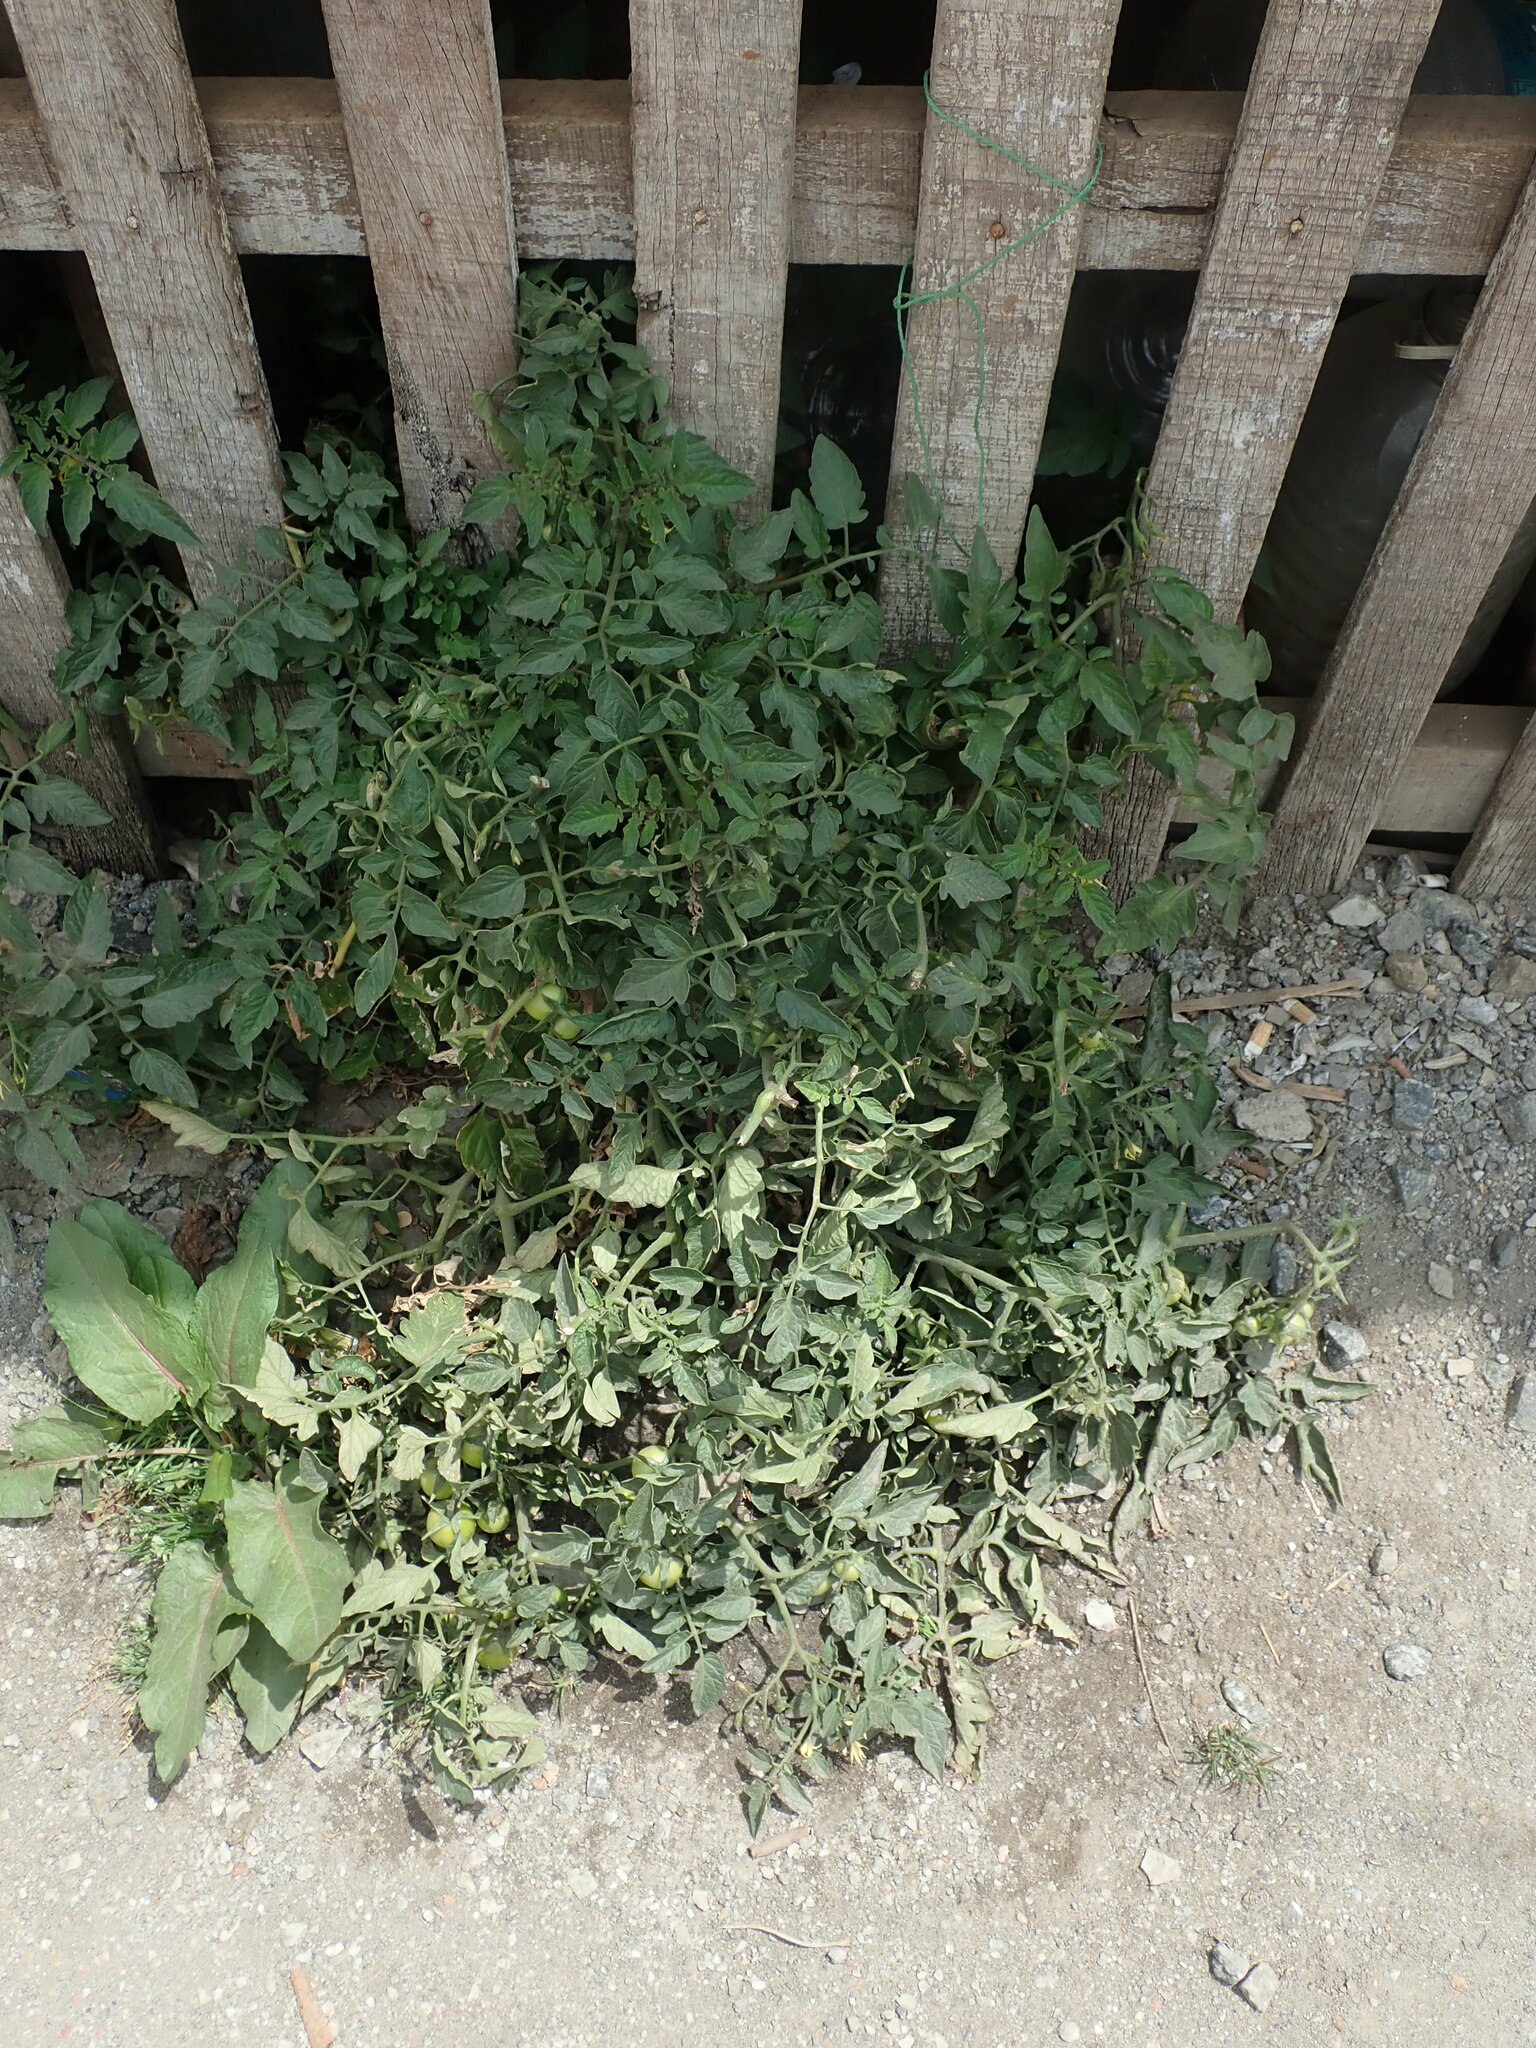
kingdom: Plantae
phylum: Tracheophyta
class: Magnoliopsida
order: Solanales
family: Solanaceae
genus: Solanum
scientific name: Solanum lycopersicum
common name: Garden tomato
